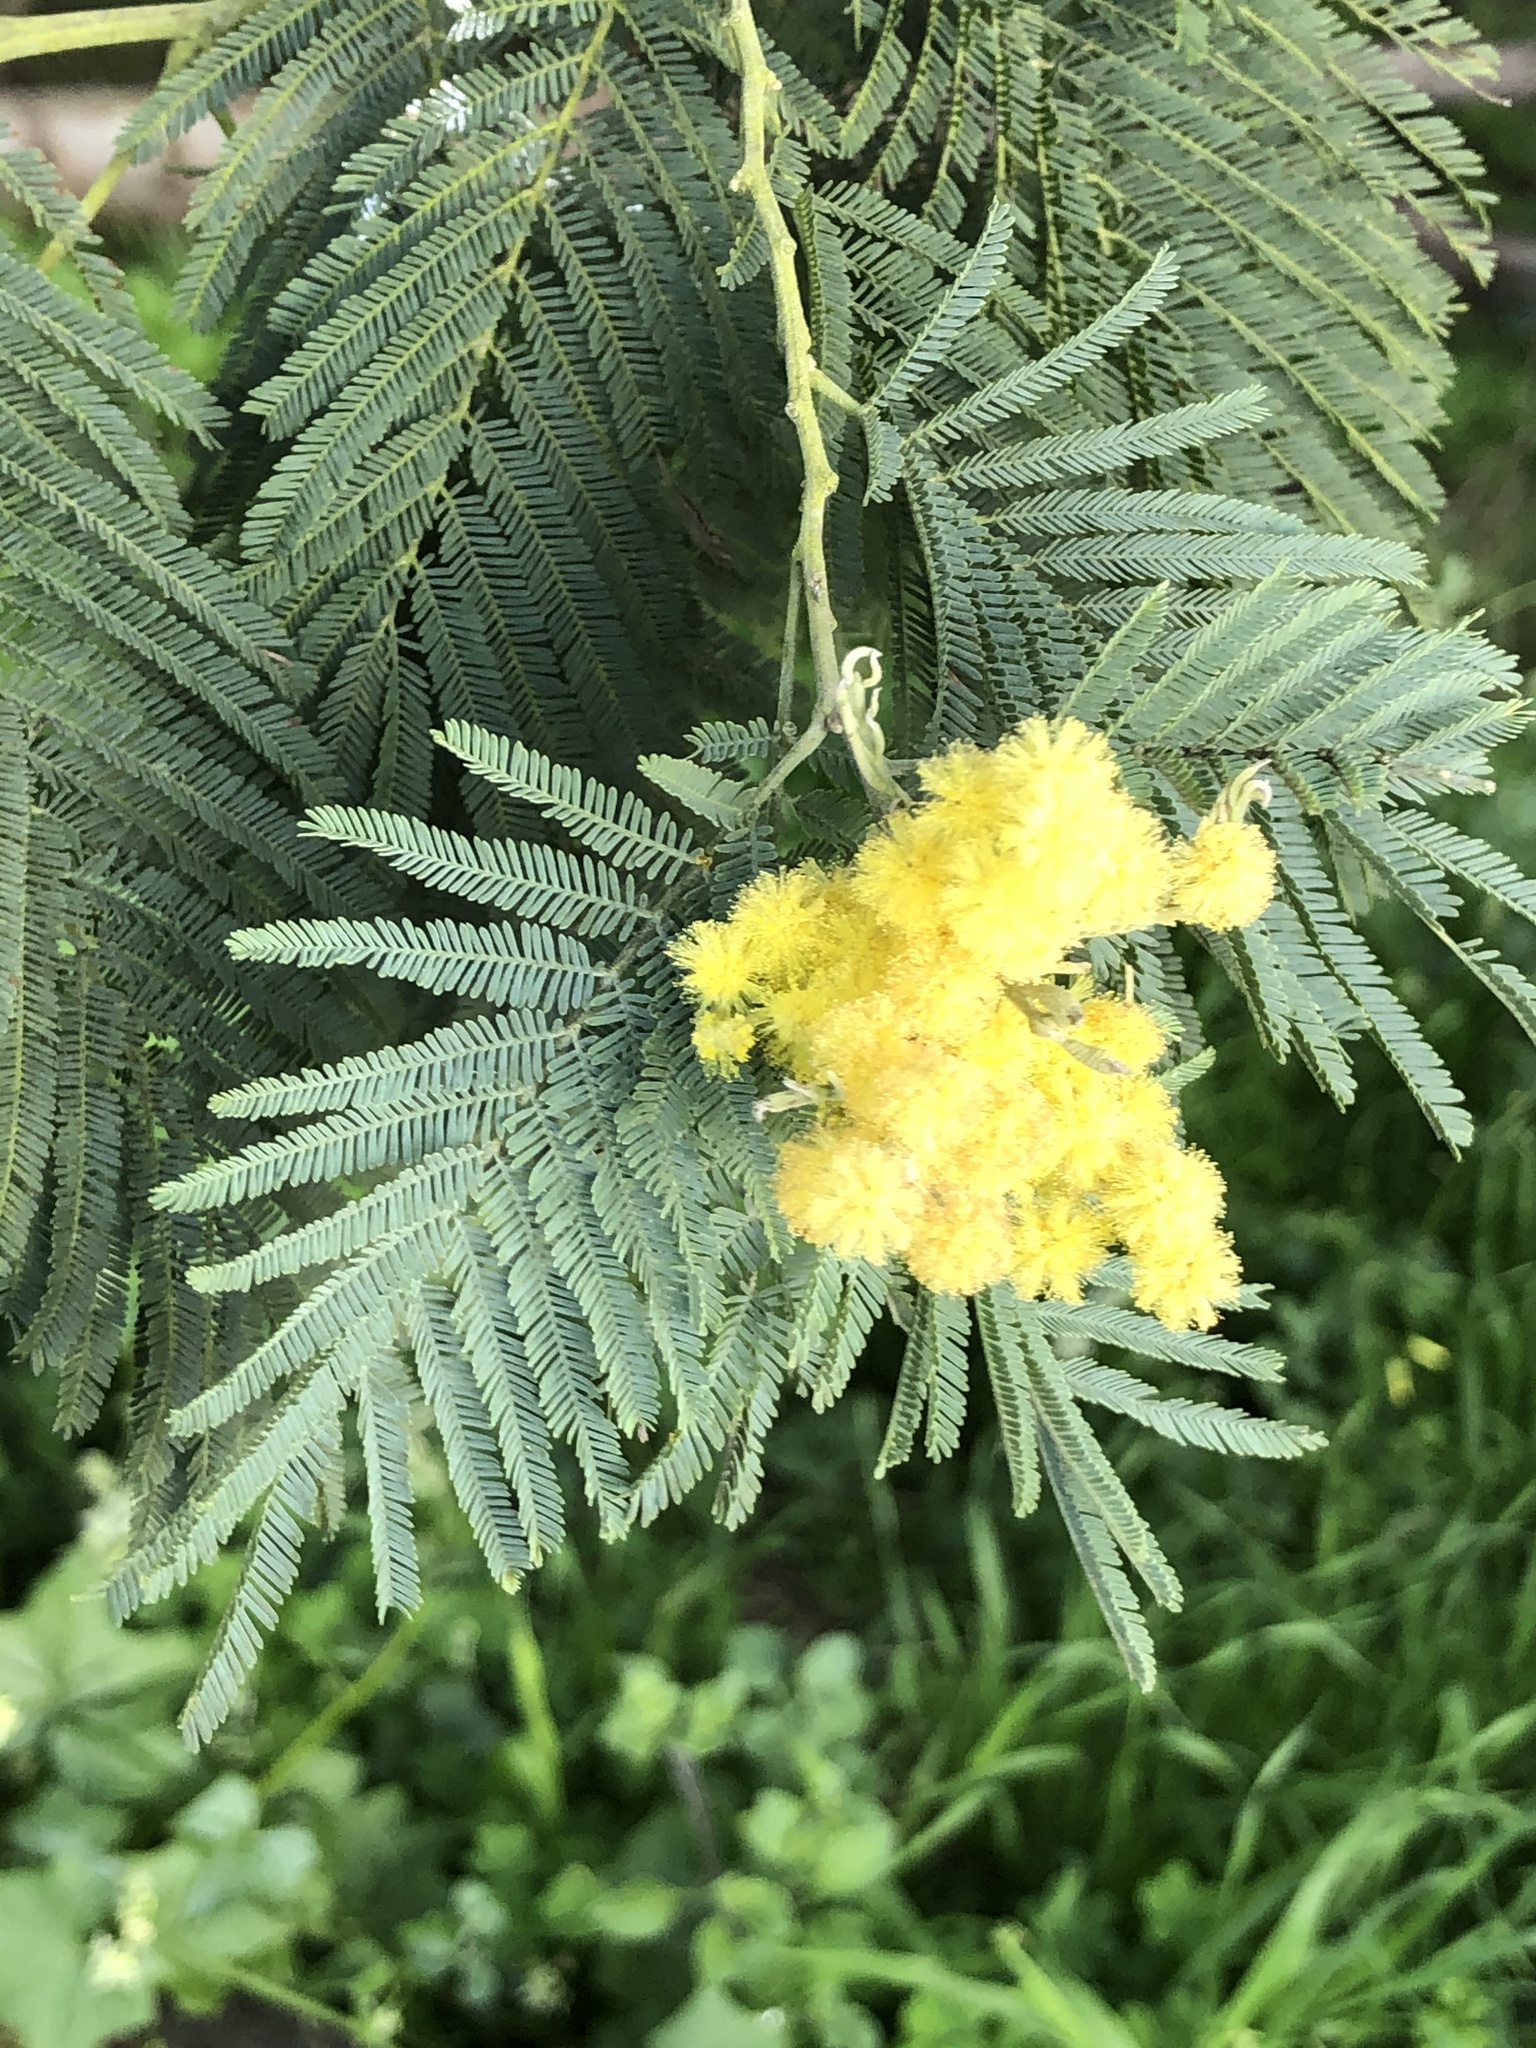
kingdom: Plantae
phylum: Tracheophyta
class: Magnoliopsida
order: Fabales
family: Fabaceae
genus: Acacia
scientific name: Acacia dealbata
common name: Silver wattle
